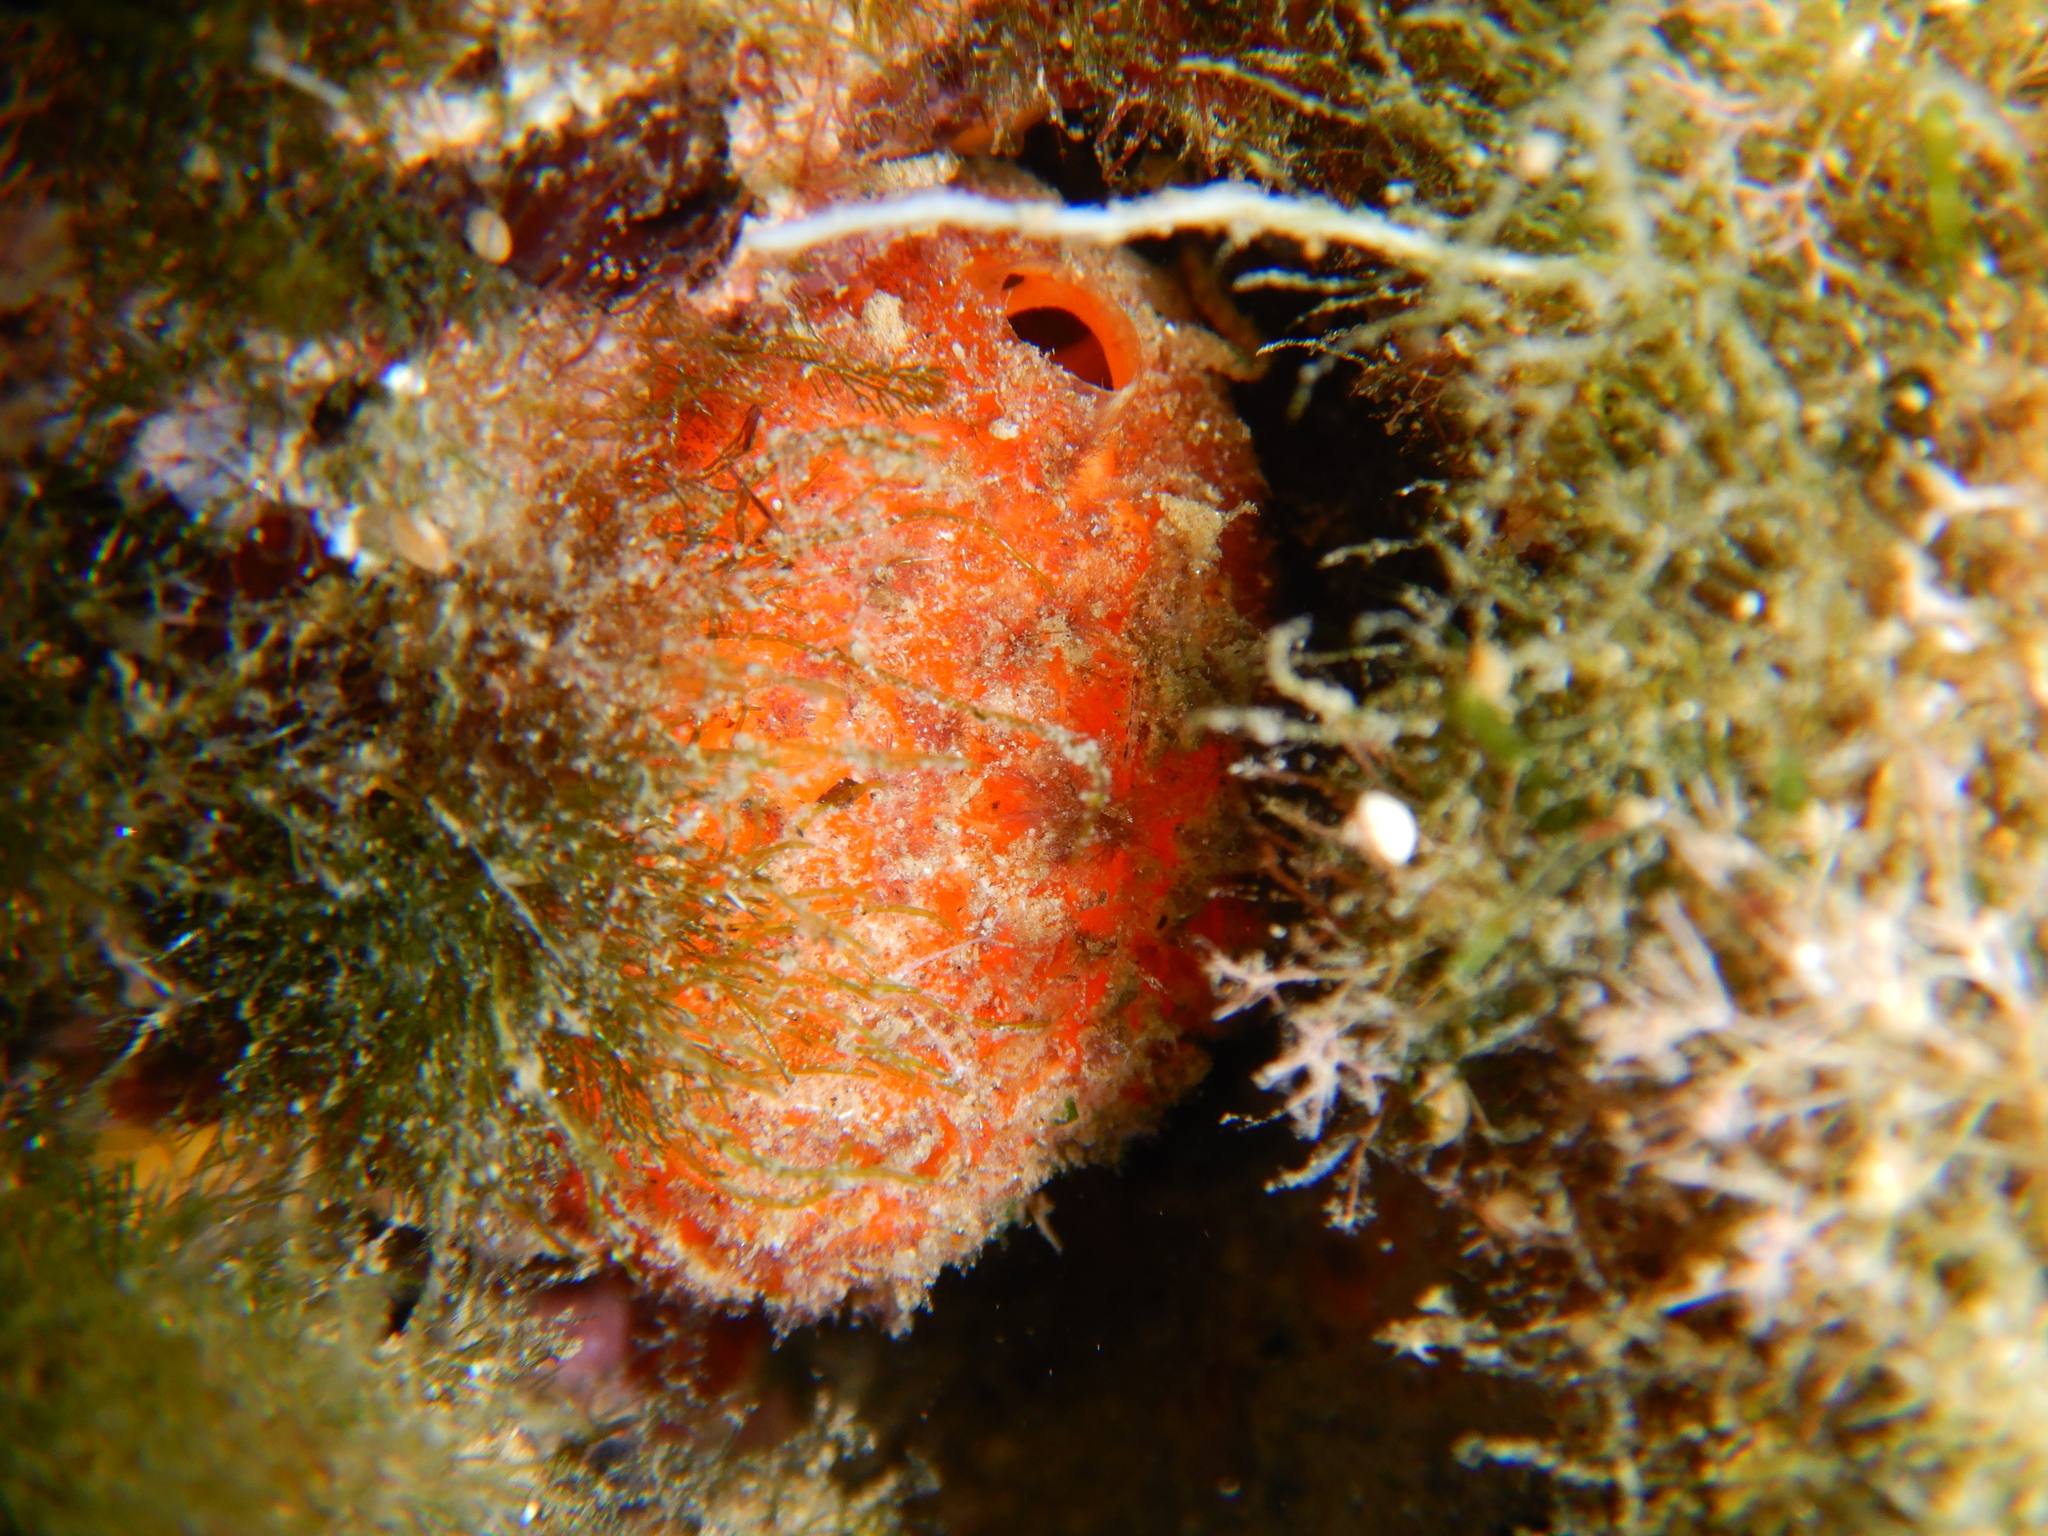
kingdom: Animalia
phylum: Porifera
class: Demospongiae
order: Tethyida
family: Tethyidae
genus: Tethya
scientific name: Tethya aurantium
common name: Golf ball sponge
